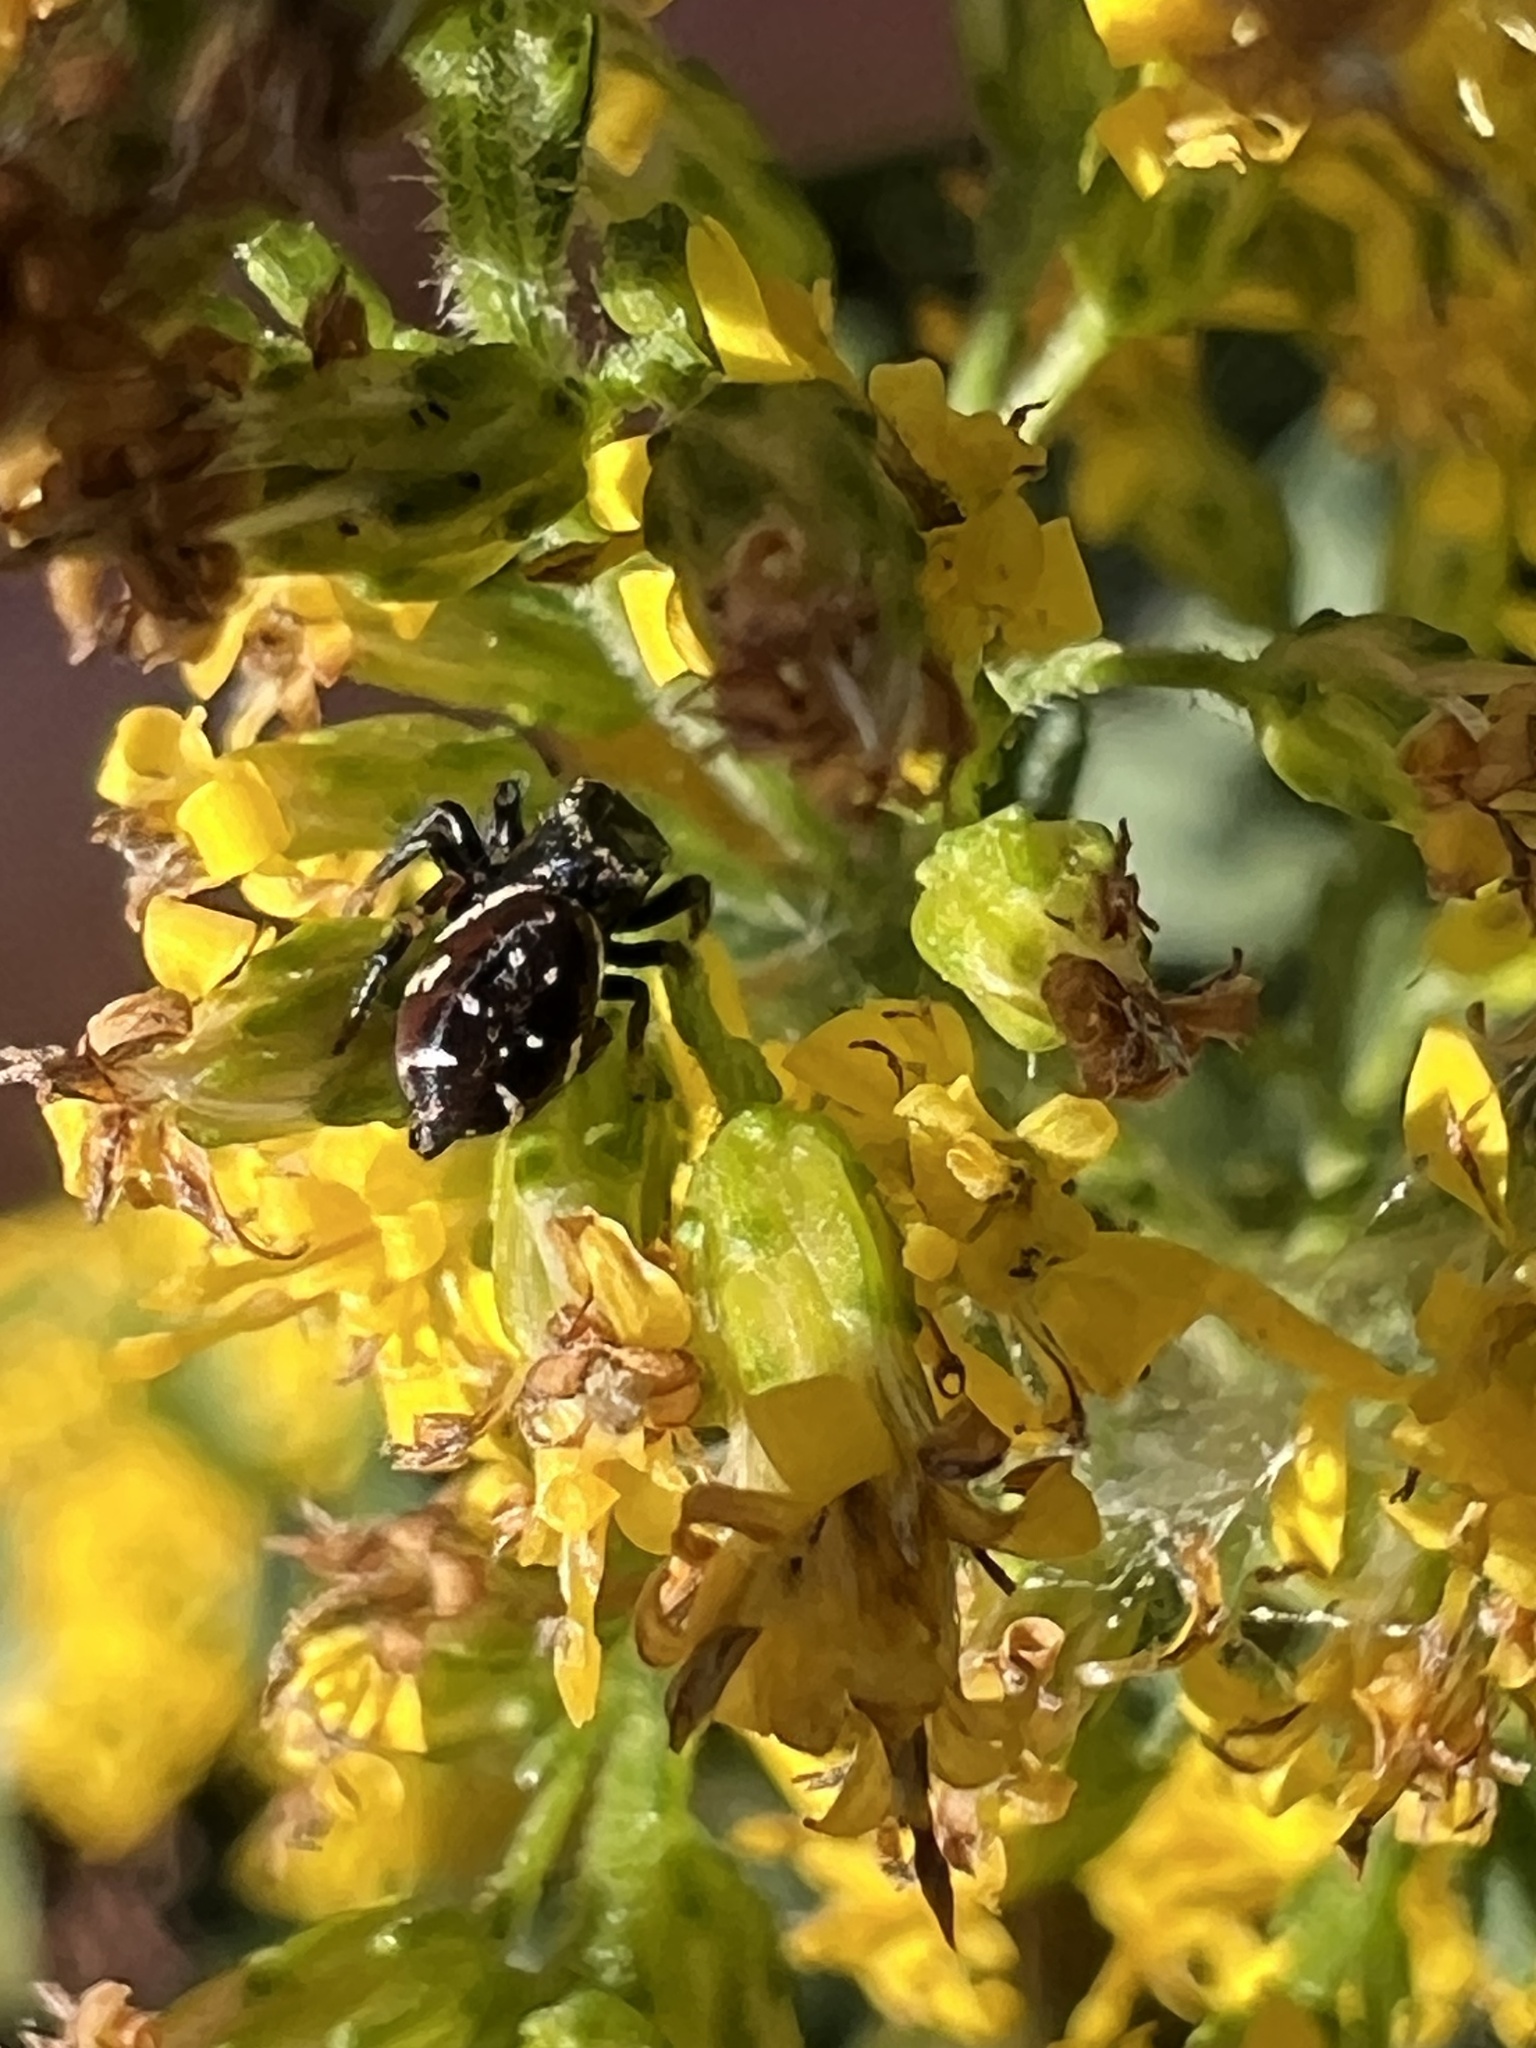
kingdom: Animalia
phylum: Arthropoda
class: Arachnida
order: Araneae
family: Salticidae
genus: Paraphidippus
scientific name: Paraphidippus aurantius
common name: Jumping spiders
